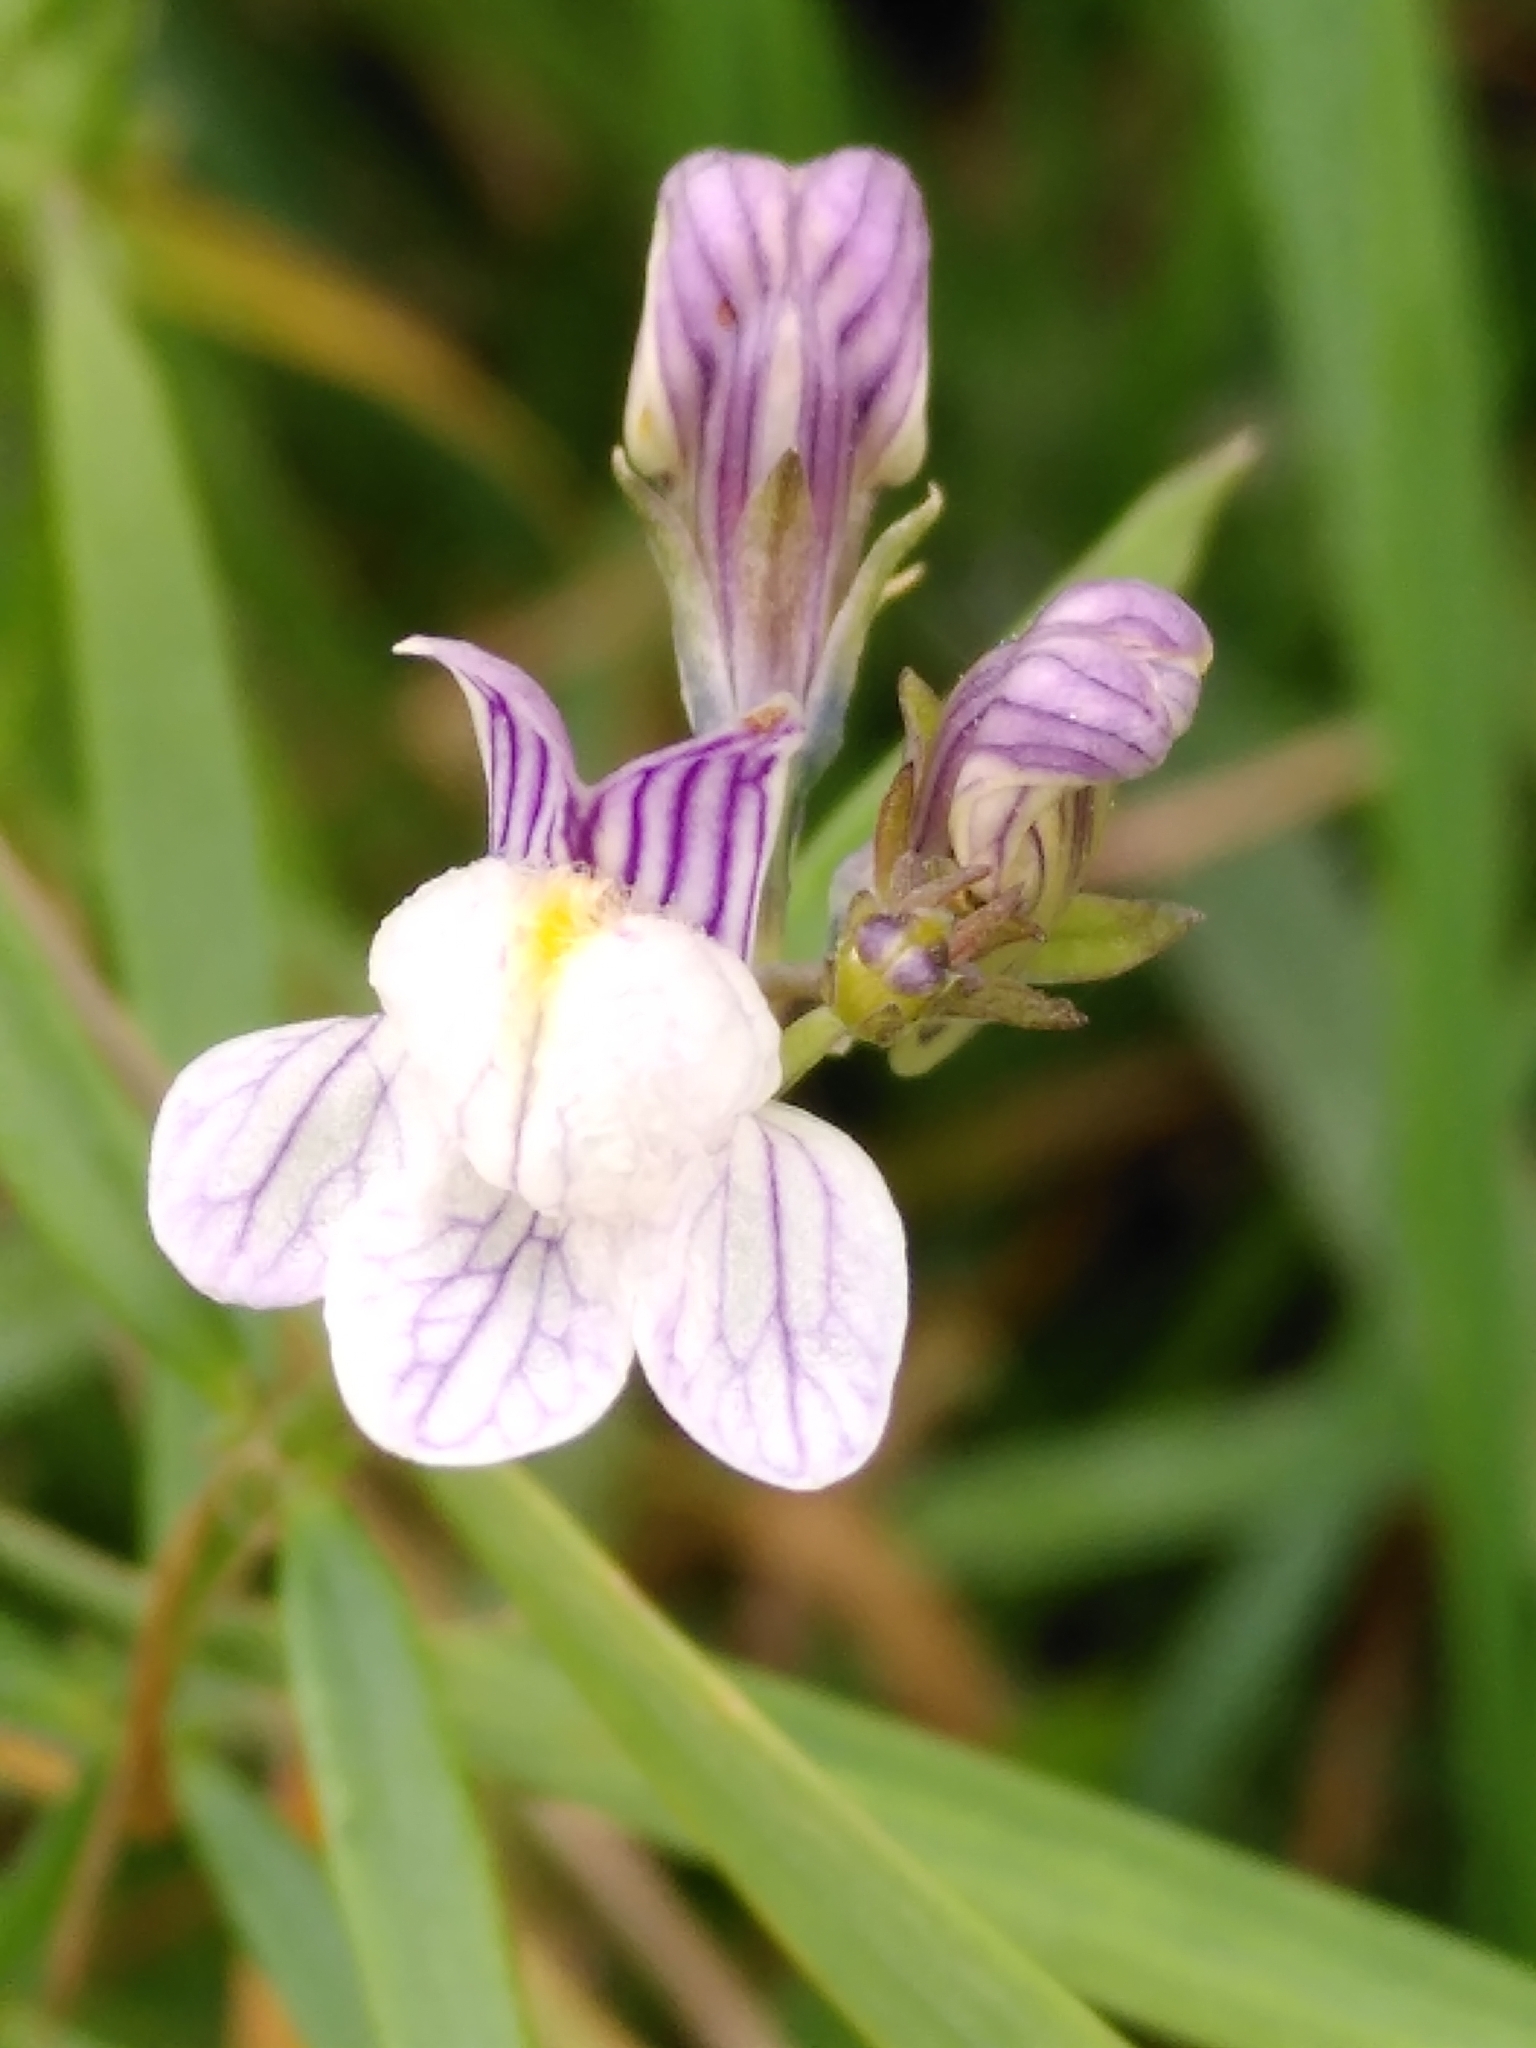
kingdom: Plantae
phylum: Tracheophyta
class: Magnoliopsida
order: Lamiales
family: Plantaginaceae
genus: Linaria
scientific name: Linaria repens
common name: Pale toadflax
